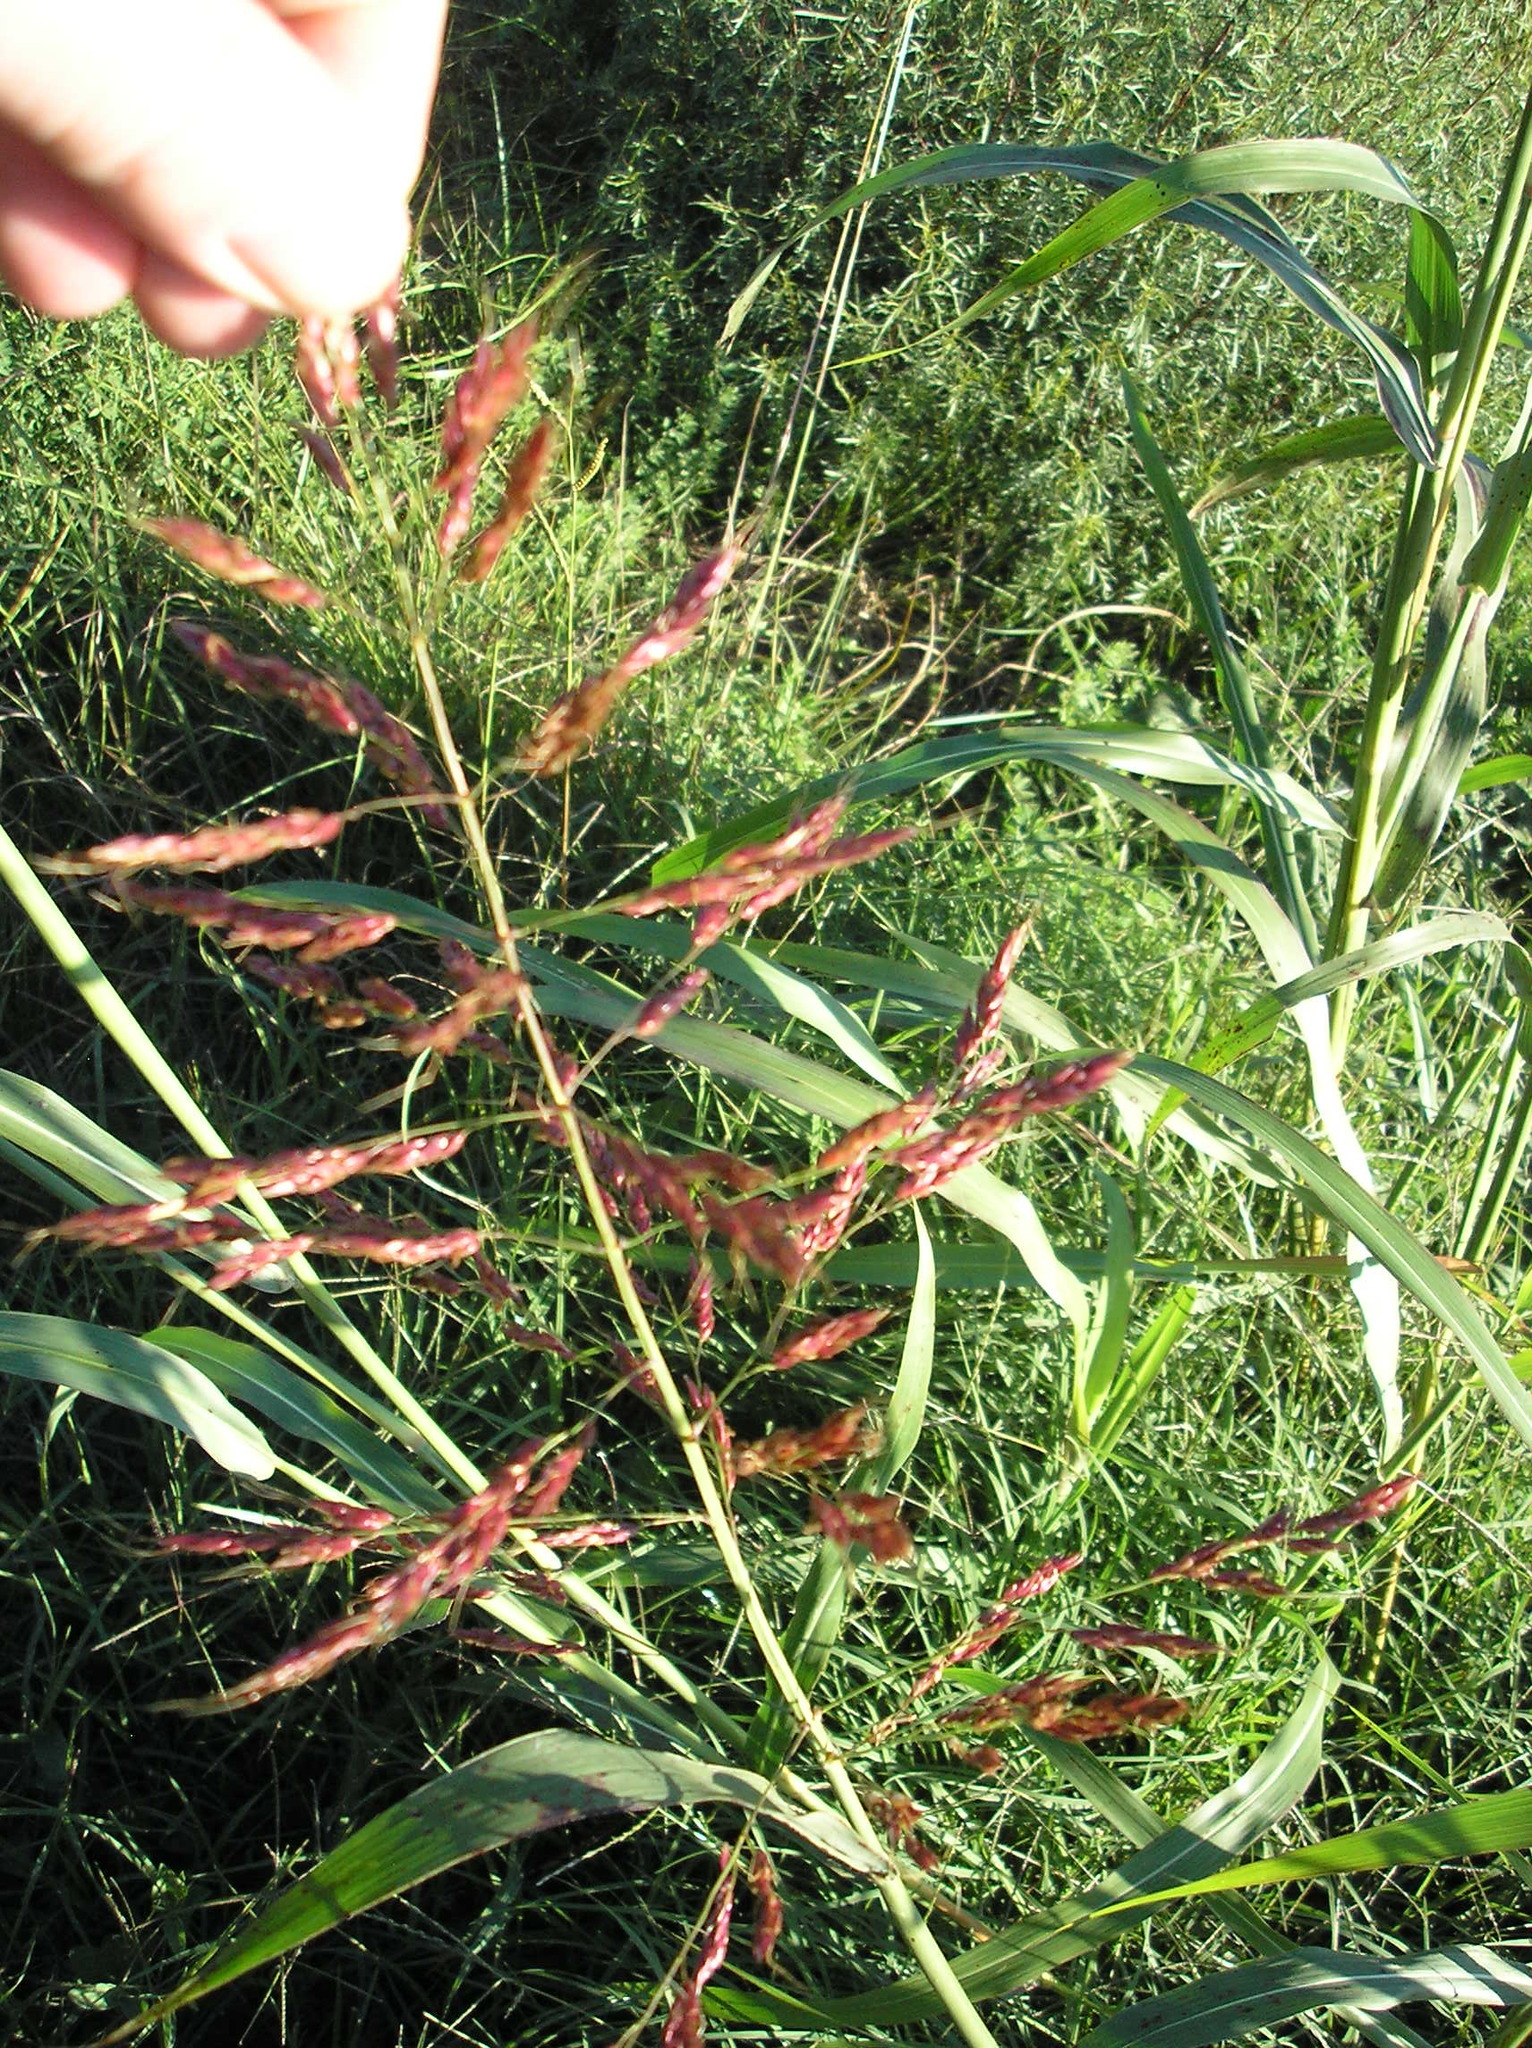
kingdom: Plantae
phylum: Tracheophyta
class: Liliopsida
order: Poales
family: Poaceae
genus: Sorghum
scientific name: Sorghum halepense
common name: Johnson-grass
